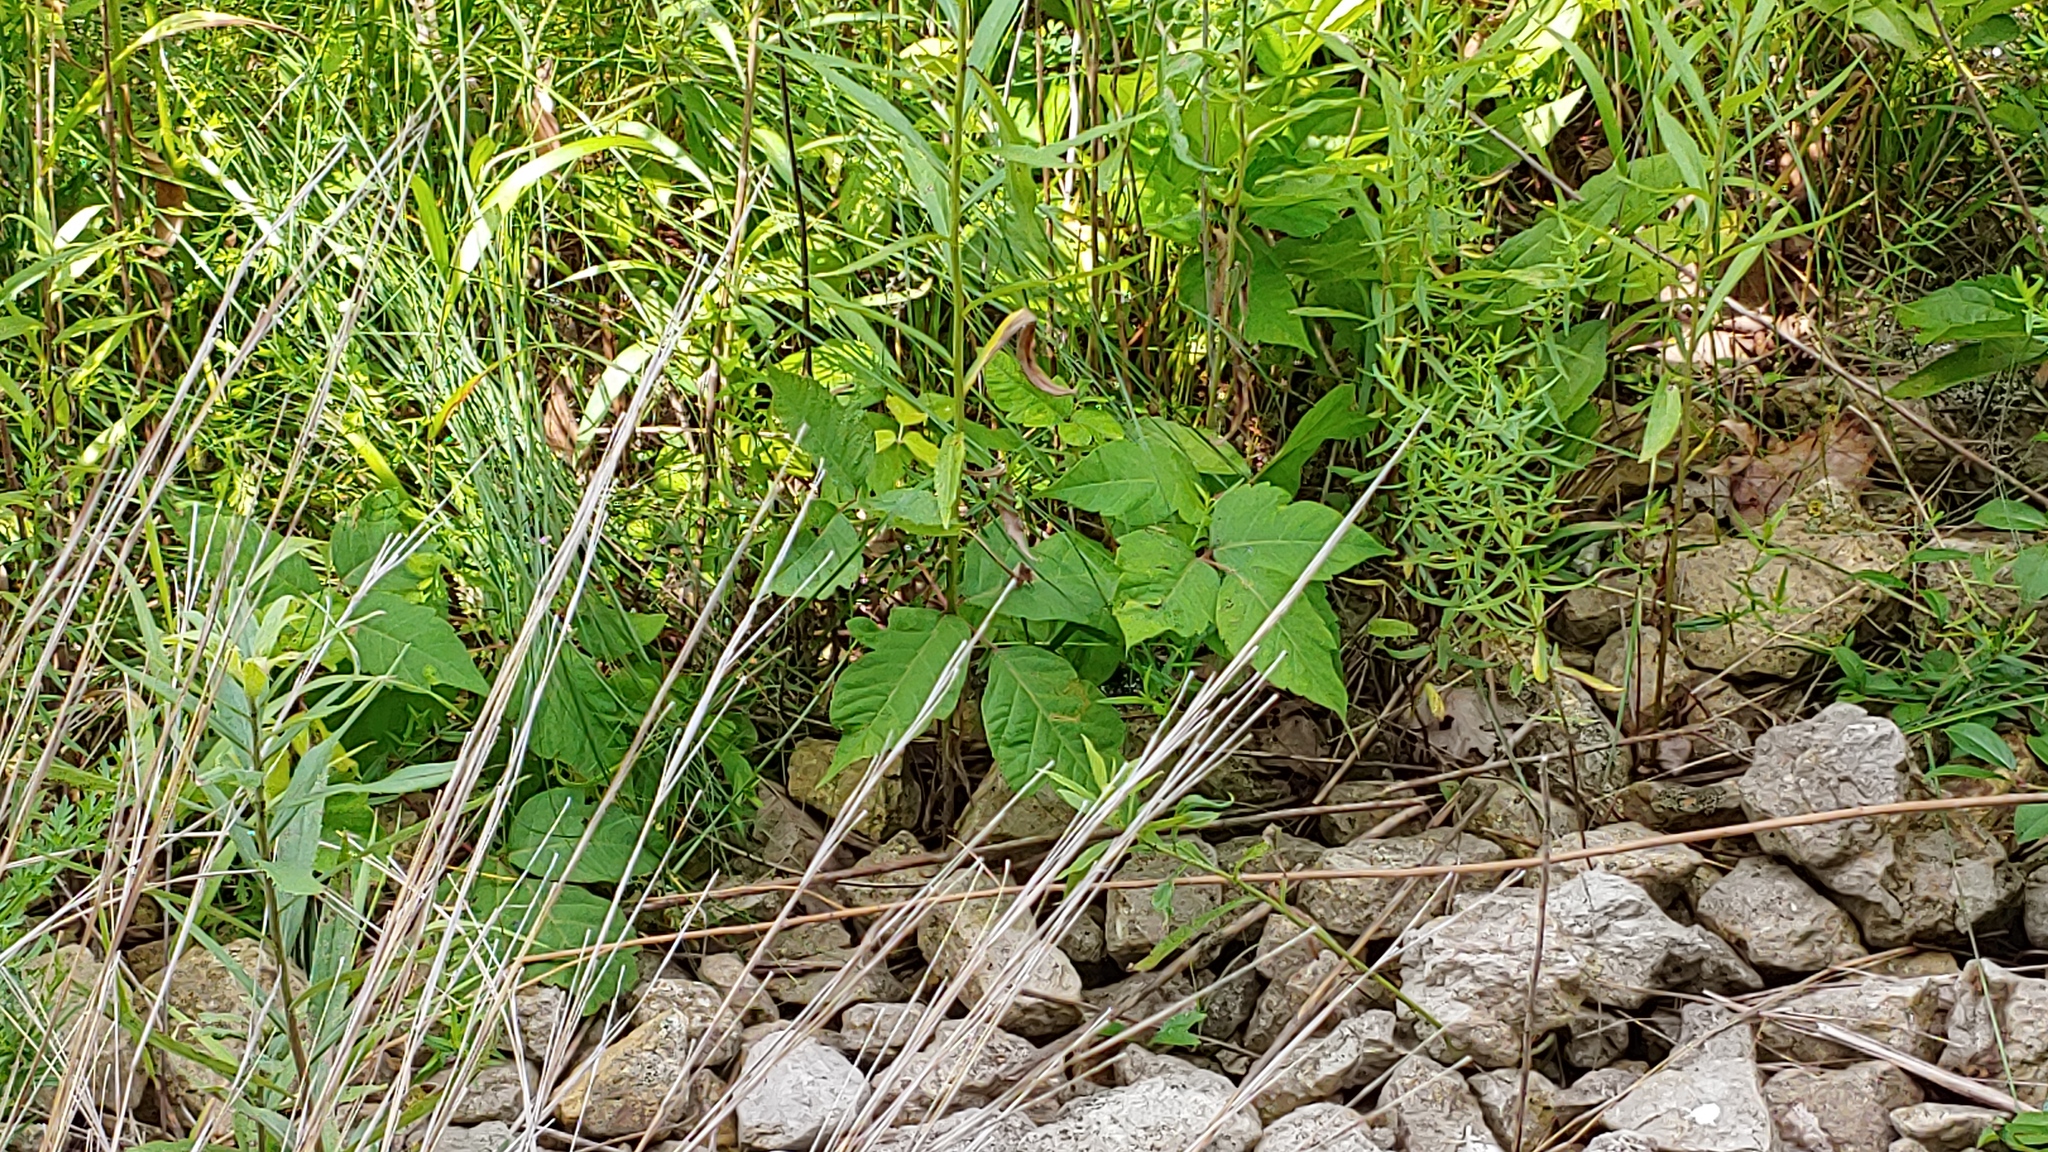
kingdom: Plantae
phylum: Tracheophyta
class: Magnoliopsida
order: Sapindales
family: Anacardiaceae
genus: Toxicodendron
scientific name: Toxicodendron radicans
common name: Poison ivy
